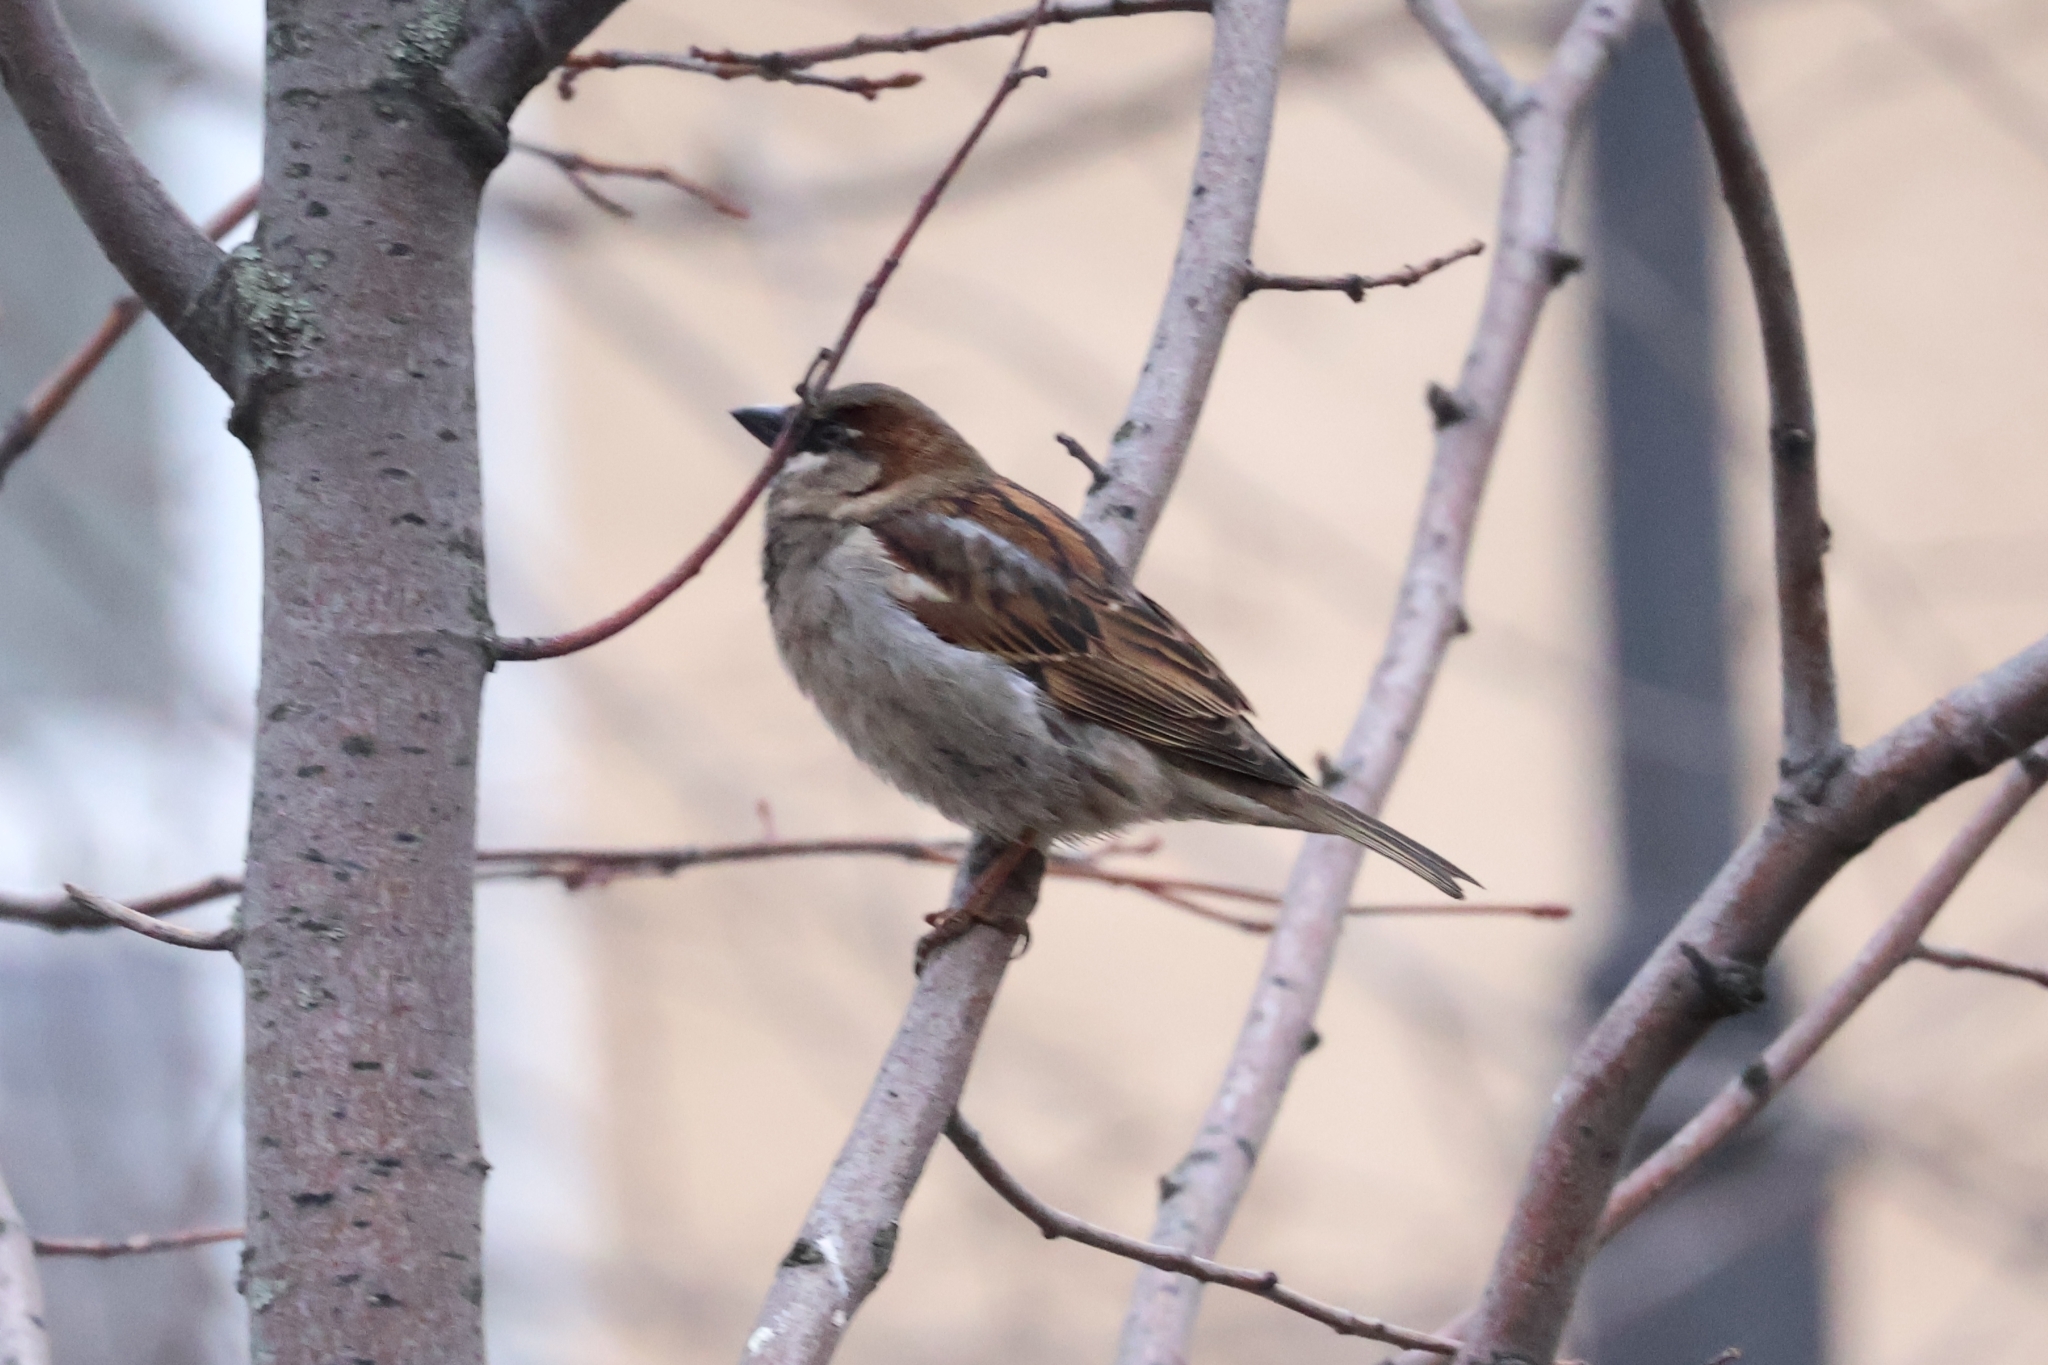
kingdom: Animalia
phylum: Chordata
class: Aves
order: Passeriformes
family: Passeridae
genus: Passer
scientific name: Passer domesticus
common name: House sparrow
